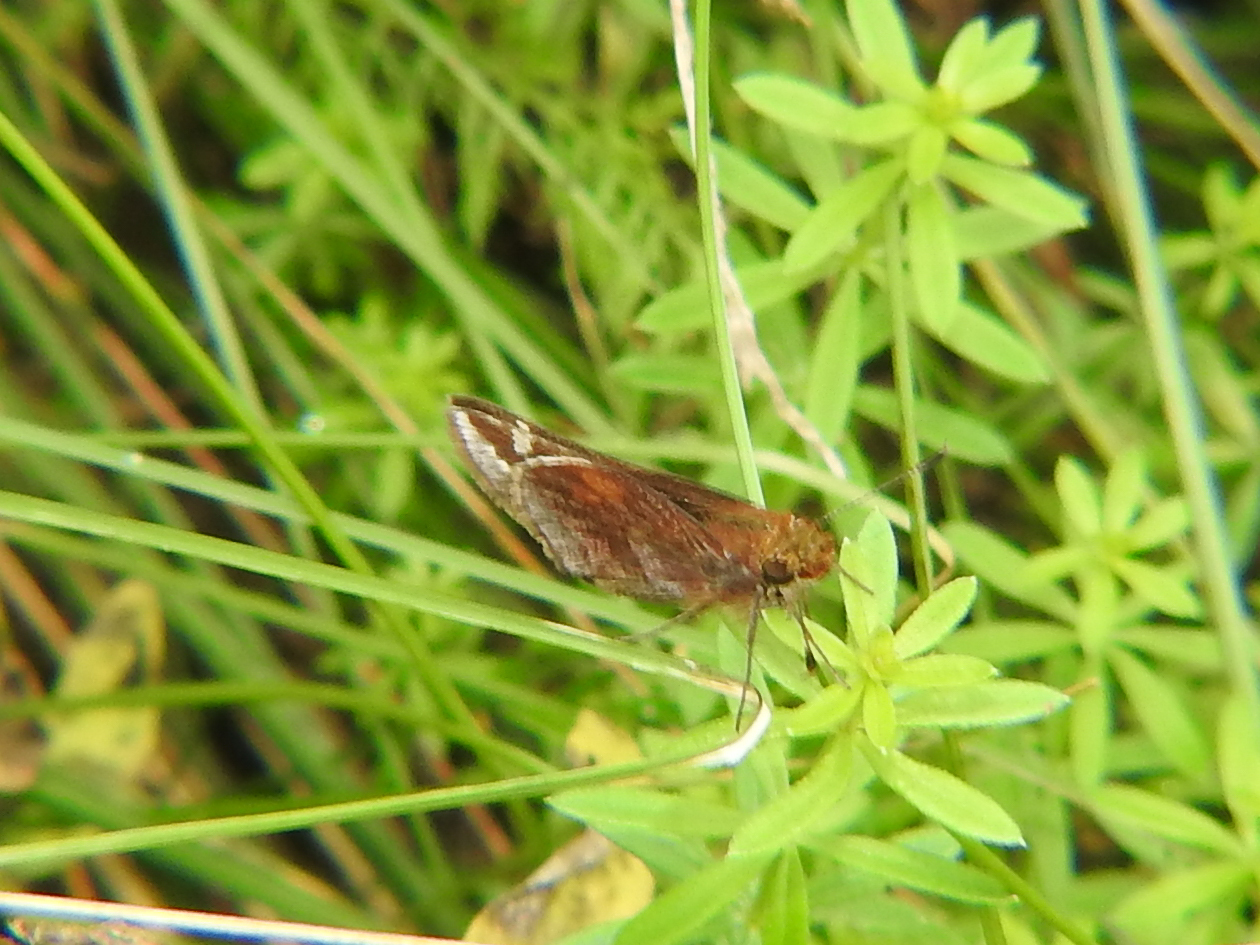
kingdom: Animalia
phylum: Arthropoda
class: Insecta
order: Lepidoptera
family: Hesperiidae
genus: Lon
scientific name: Lon zabulon
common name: Zabulon skipper
